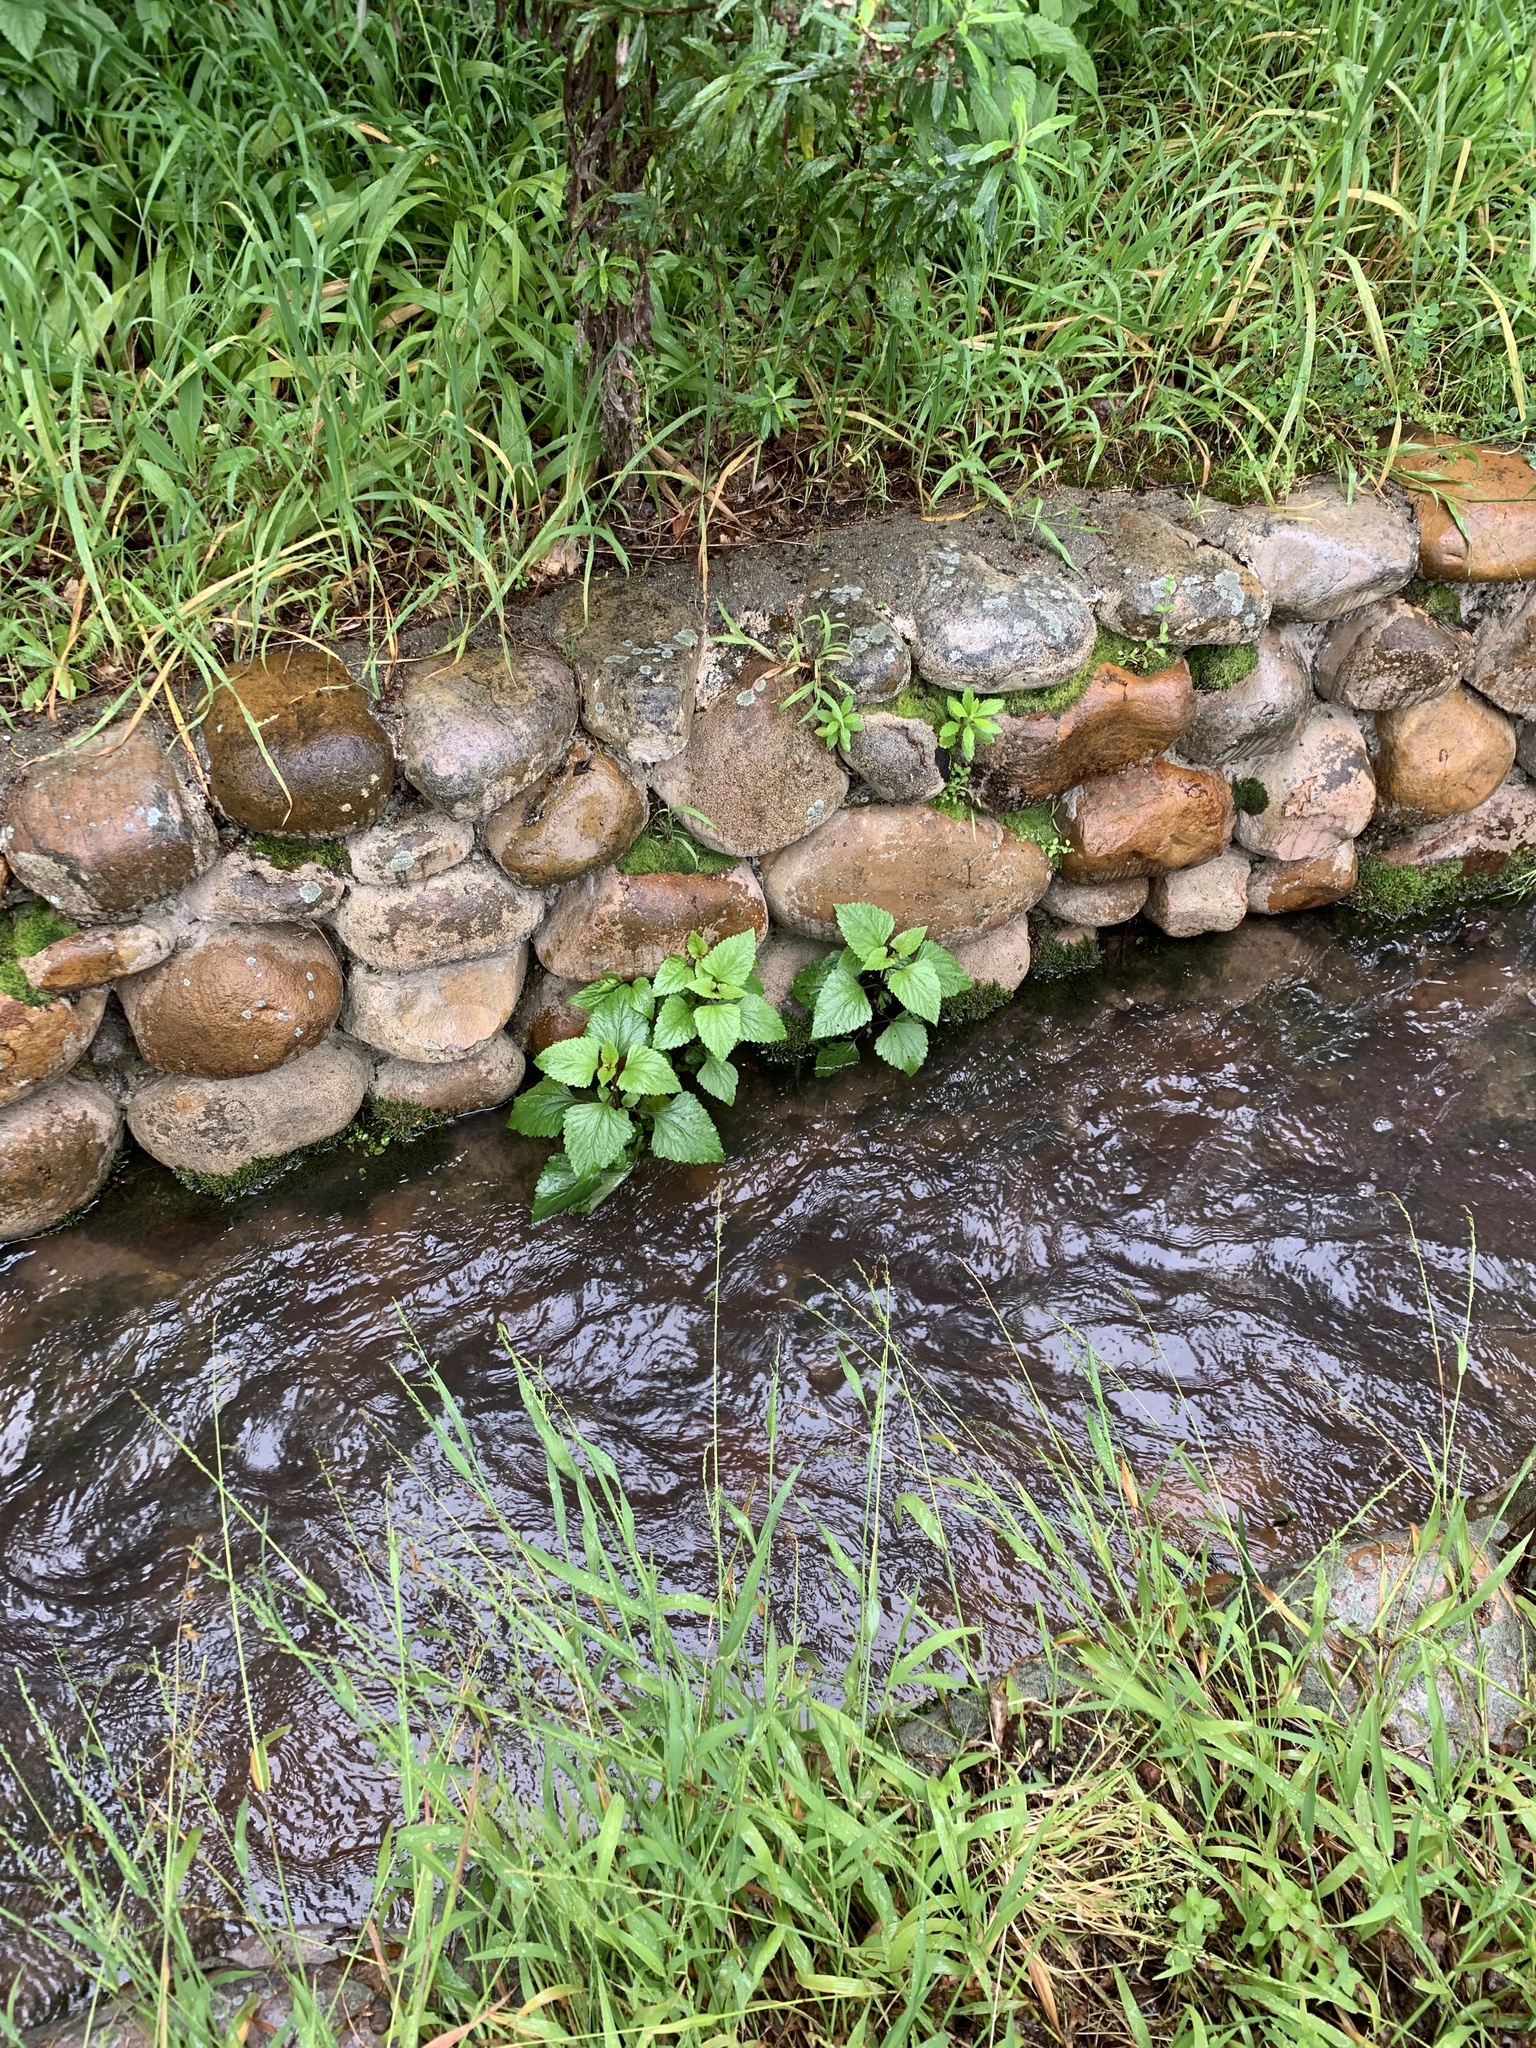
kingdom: Plantae
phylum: Tracheophyta
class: Magnoliopsida
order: Asterales
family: Asteraceae
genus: Ageratina
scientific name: Ageratina adenophora
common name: Sticky snakeroot
